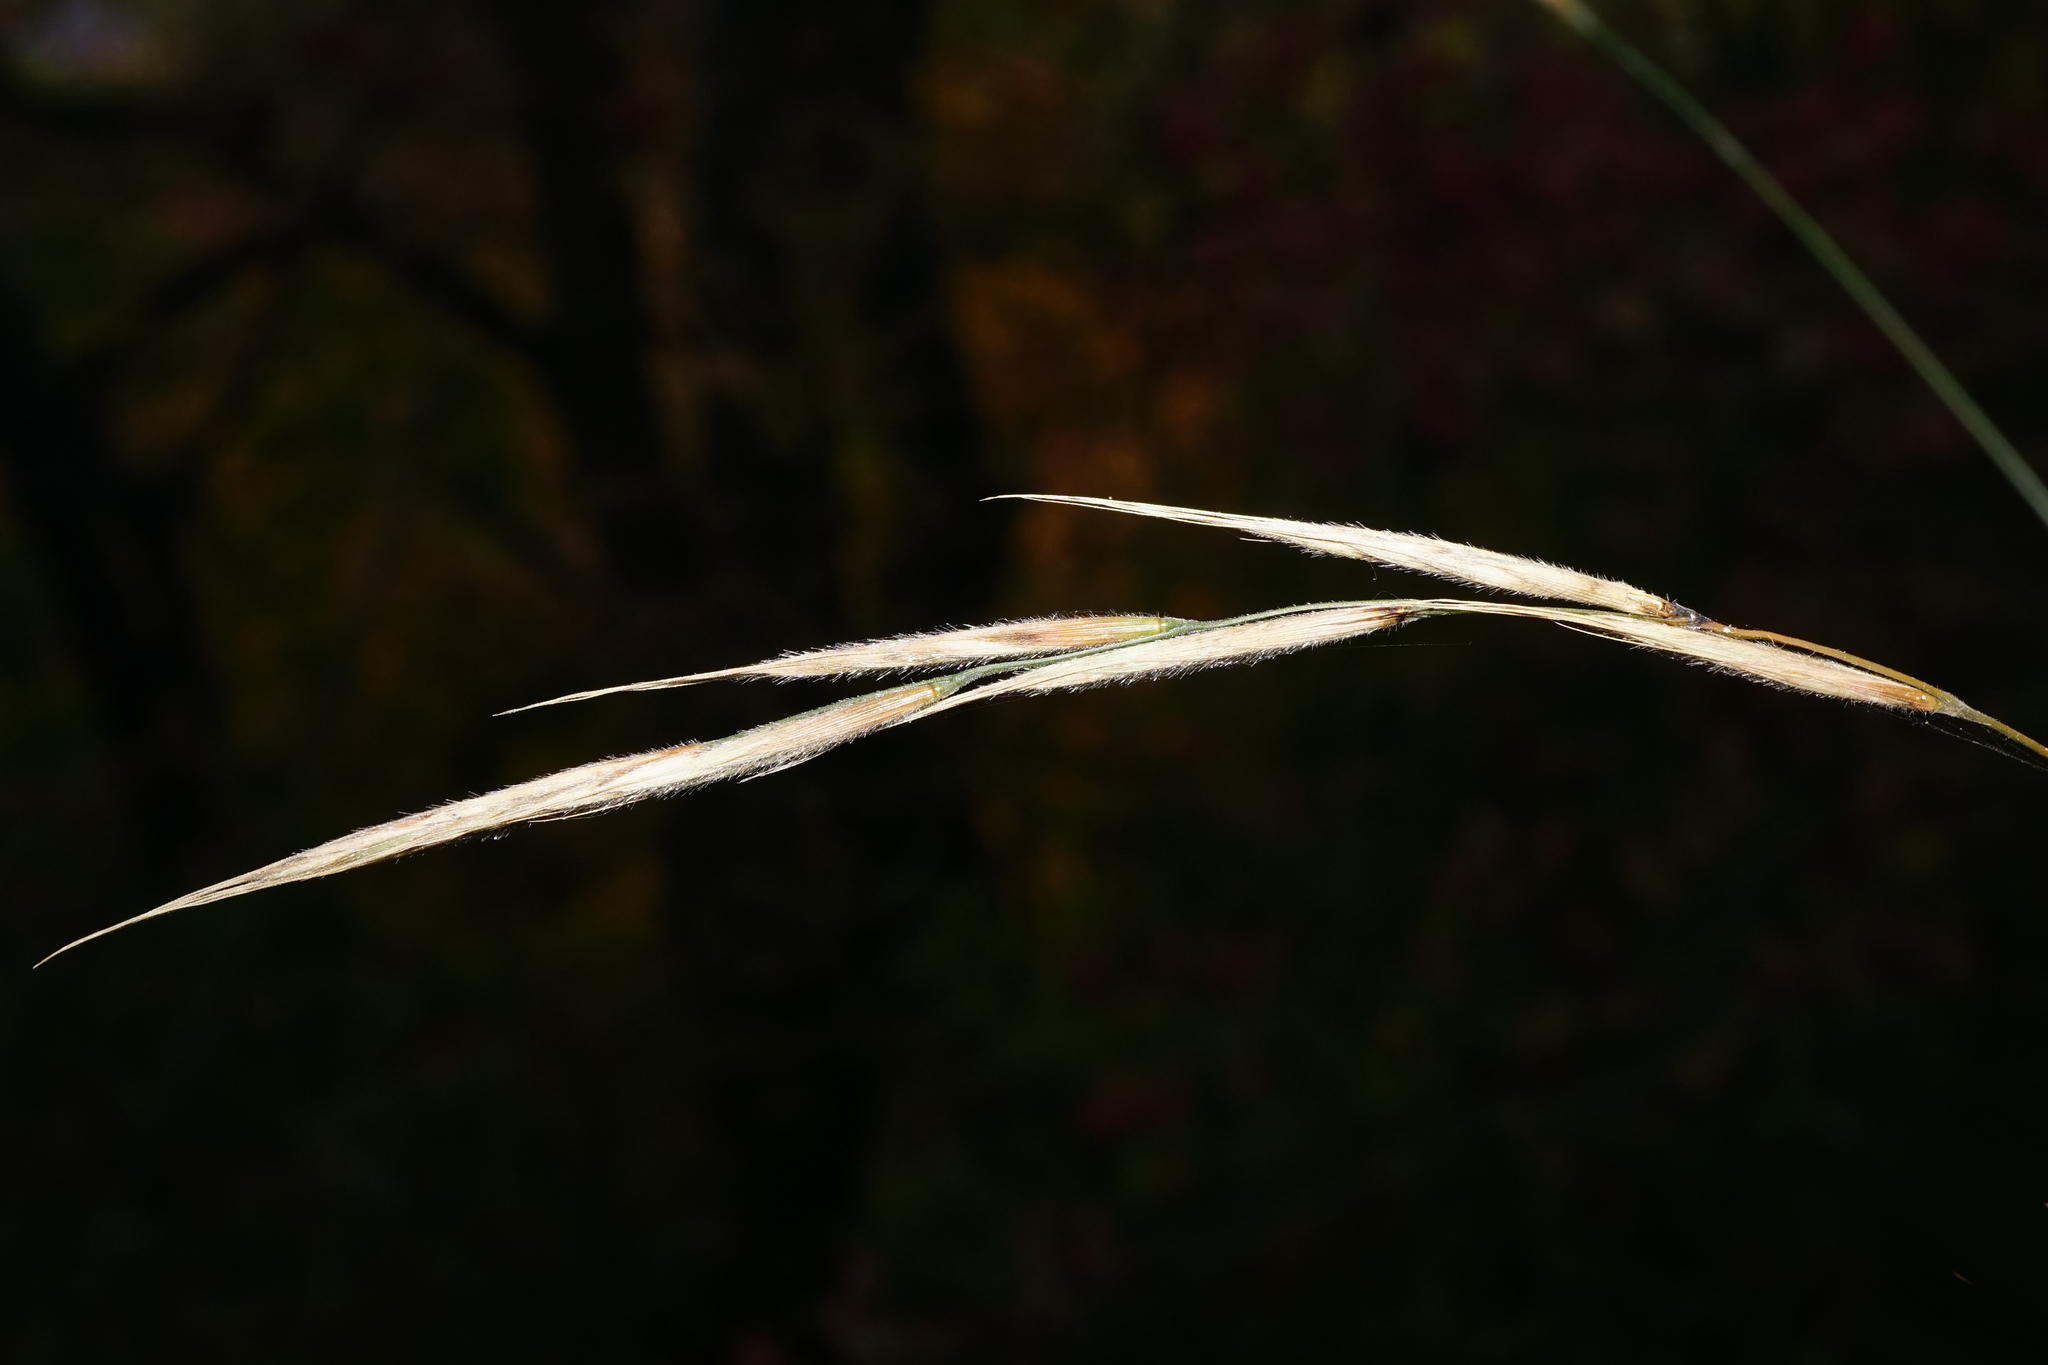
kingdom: Plantae
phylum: Tracheophyta
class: Liliopsida
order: Poales
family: Poaceae
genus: Brachypodium
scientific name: Brachypodium sylvaticum
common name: False-brome
